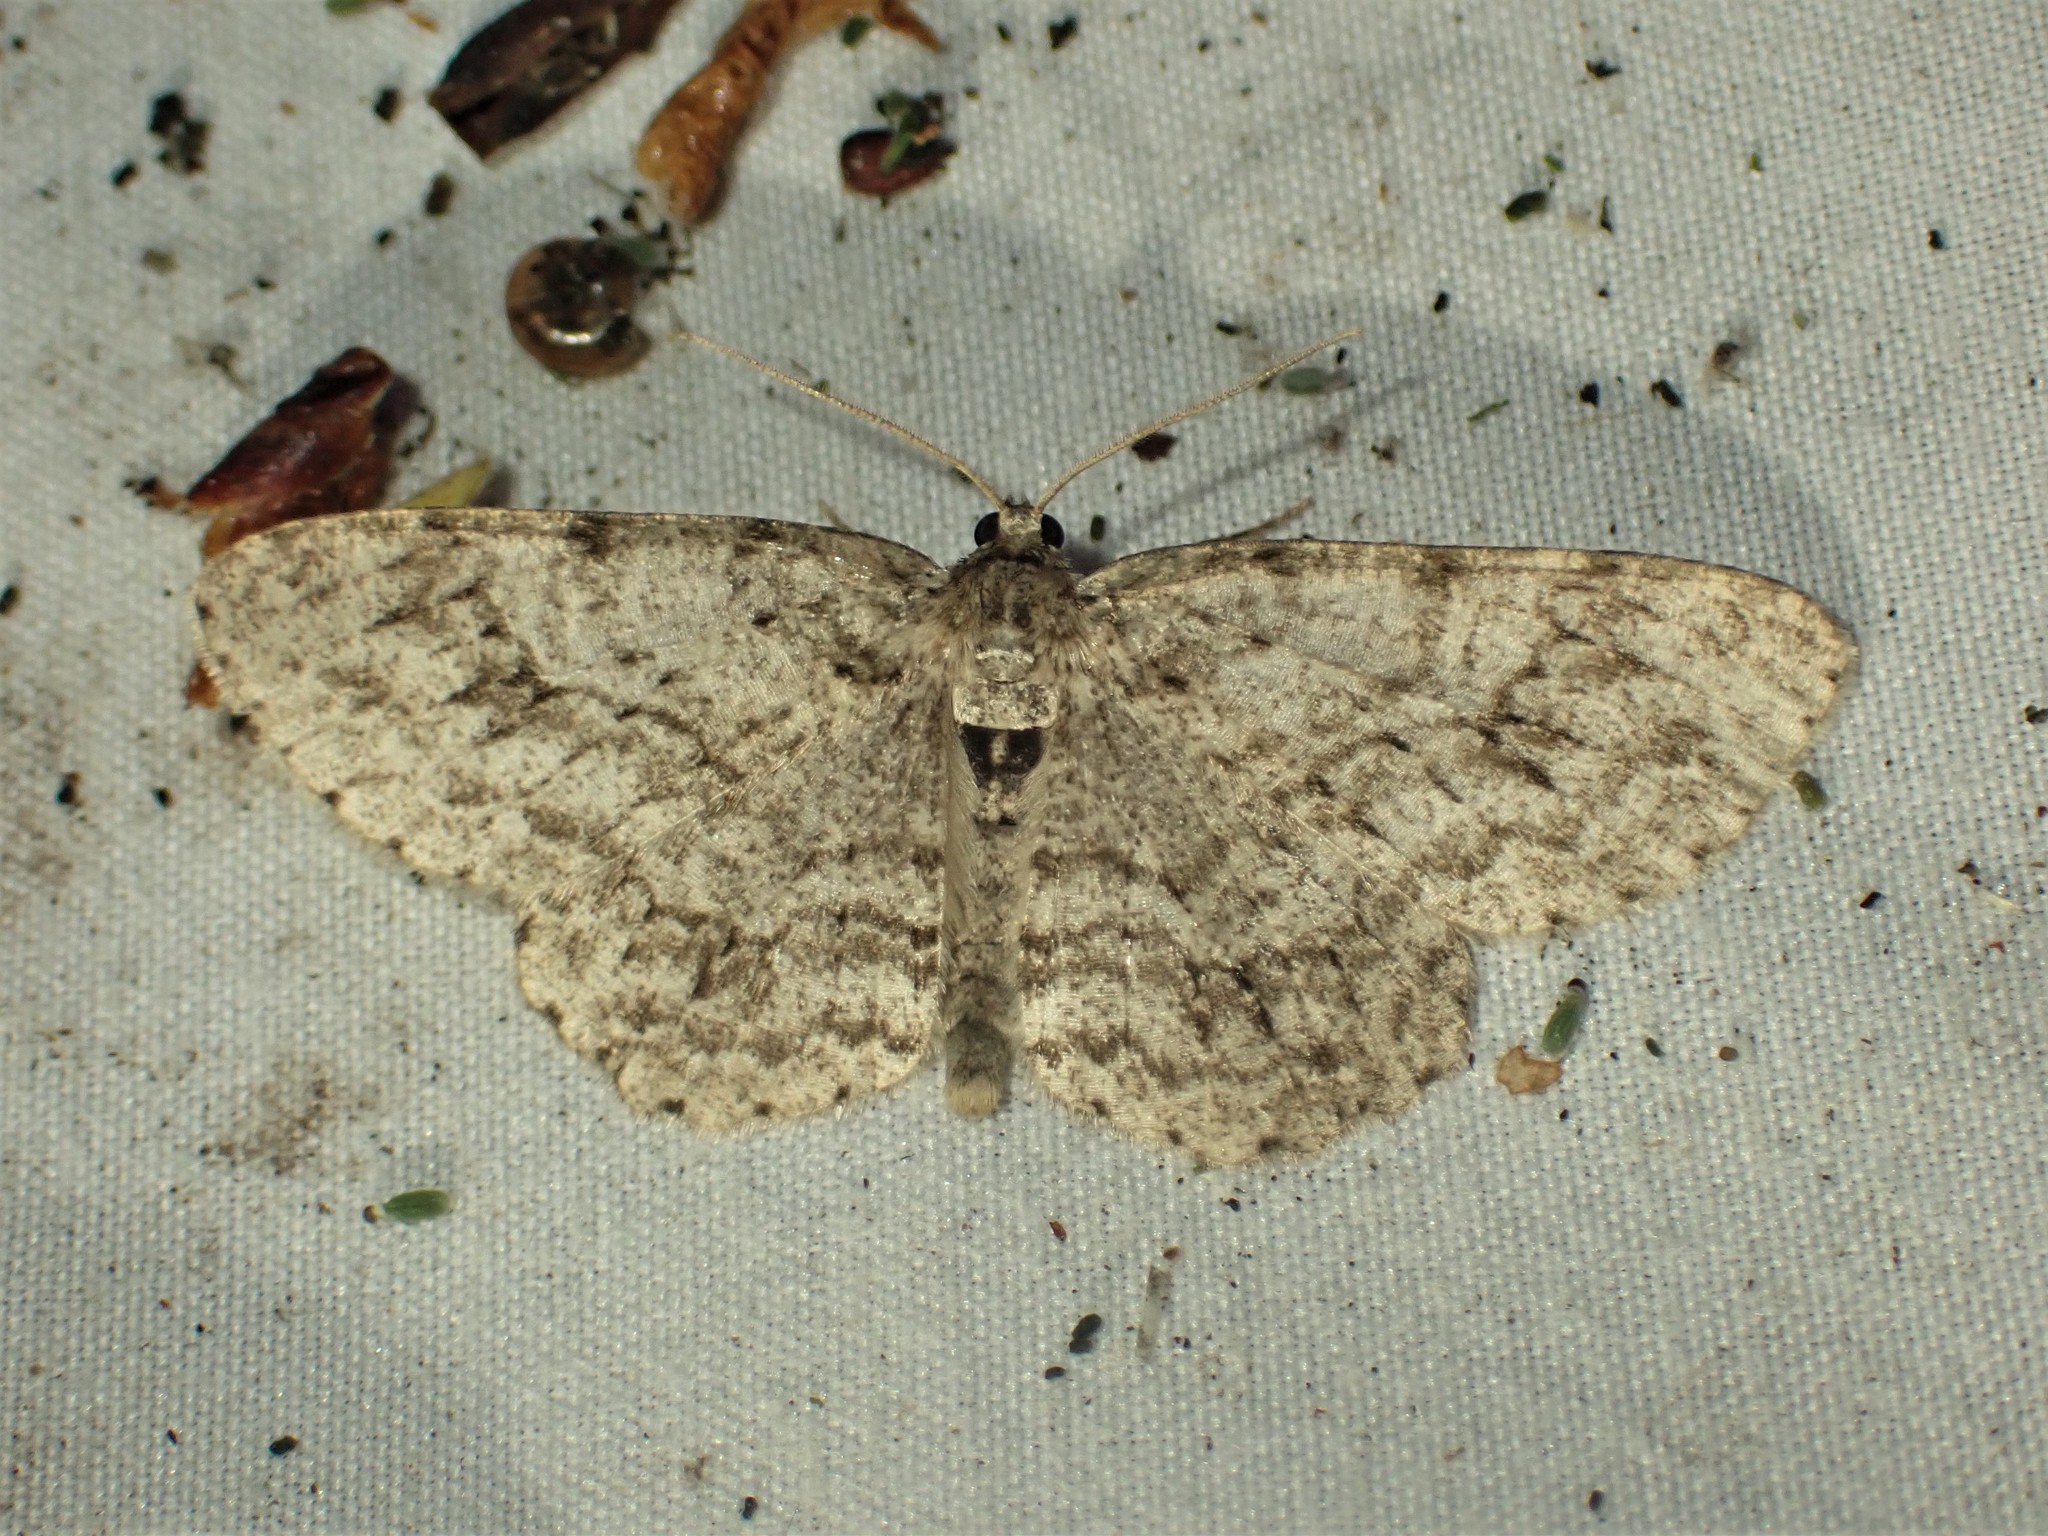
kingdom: Animalia
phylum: Arthropoda
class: Insecta
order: Lepidoptera
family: Geometridae
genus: Ectropis
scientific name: Ectropis crepuscularia
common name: Engrailed
